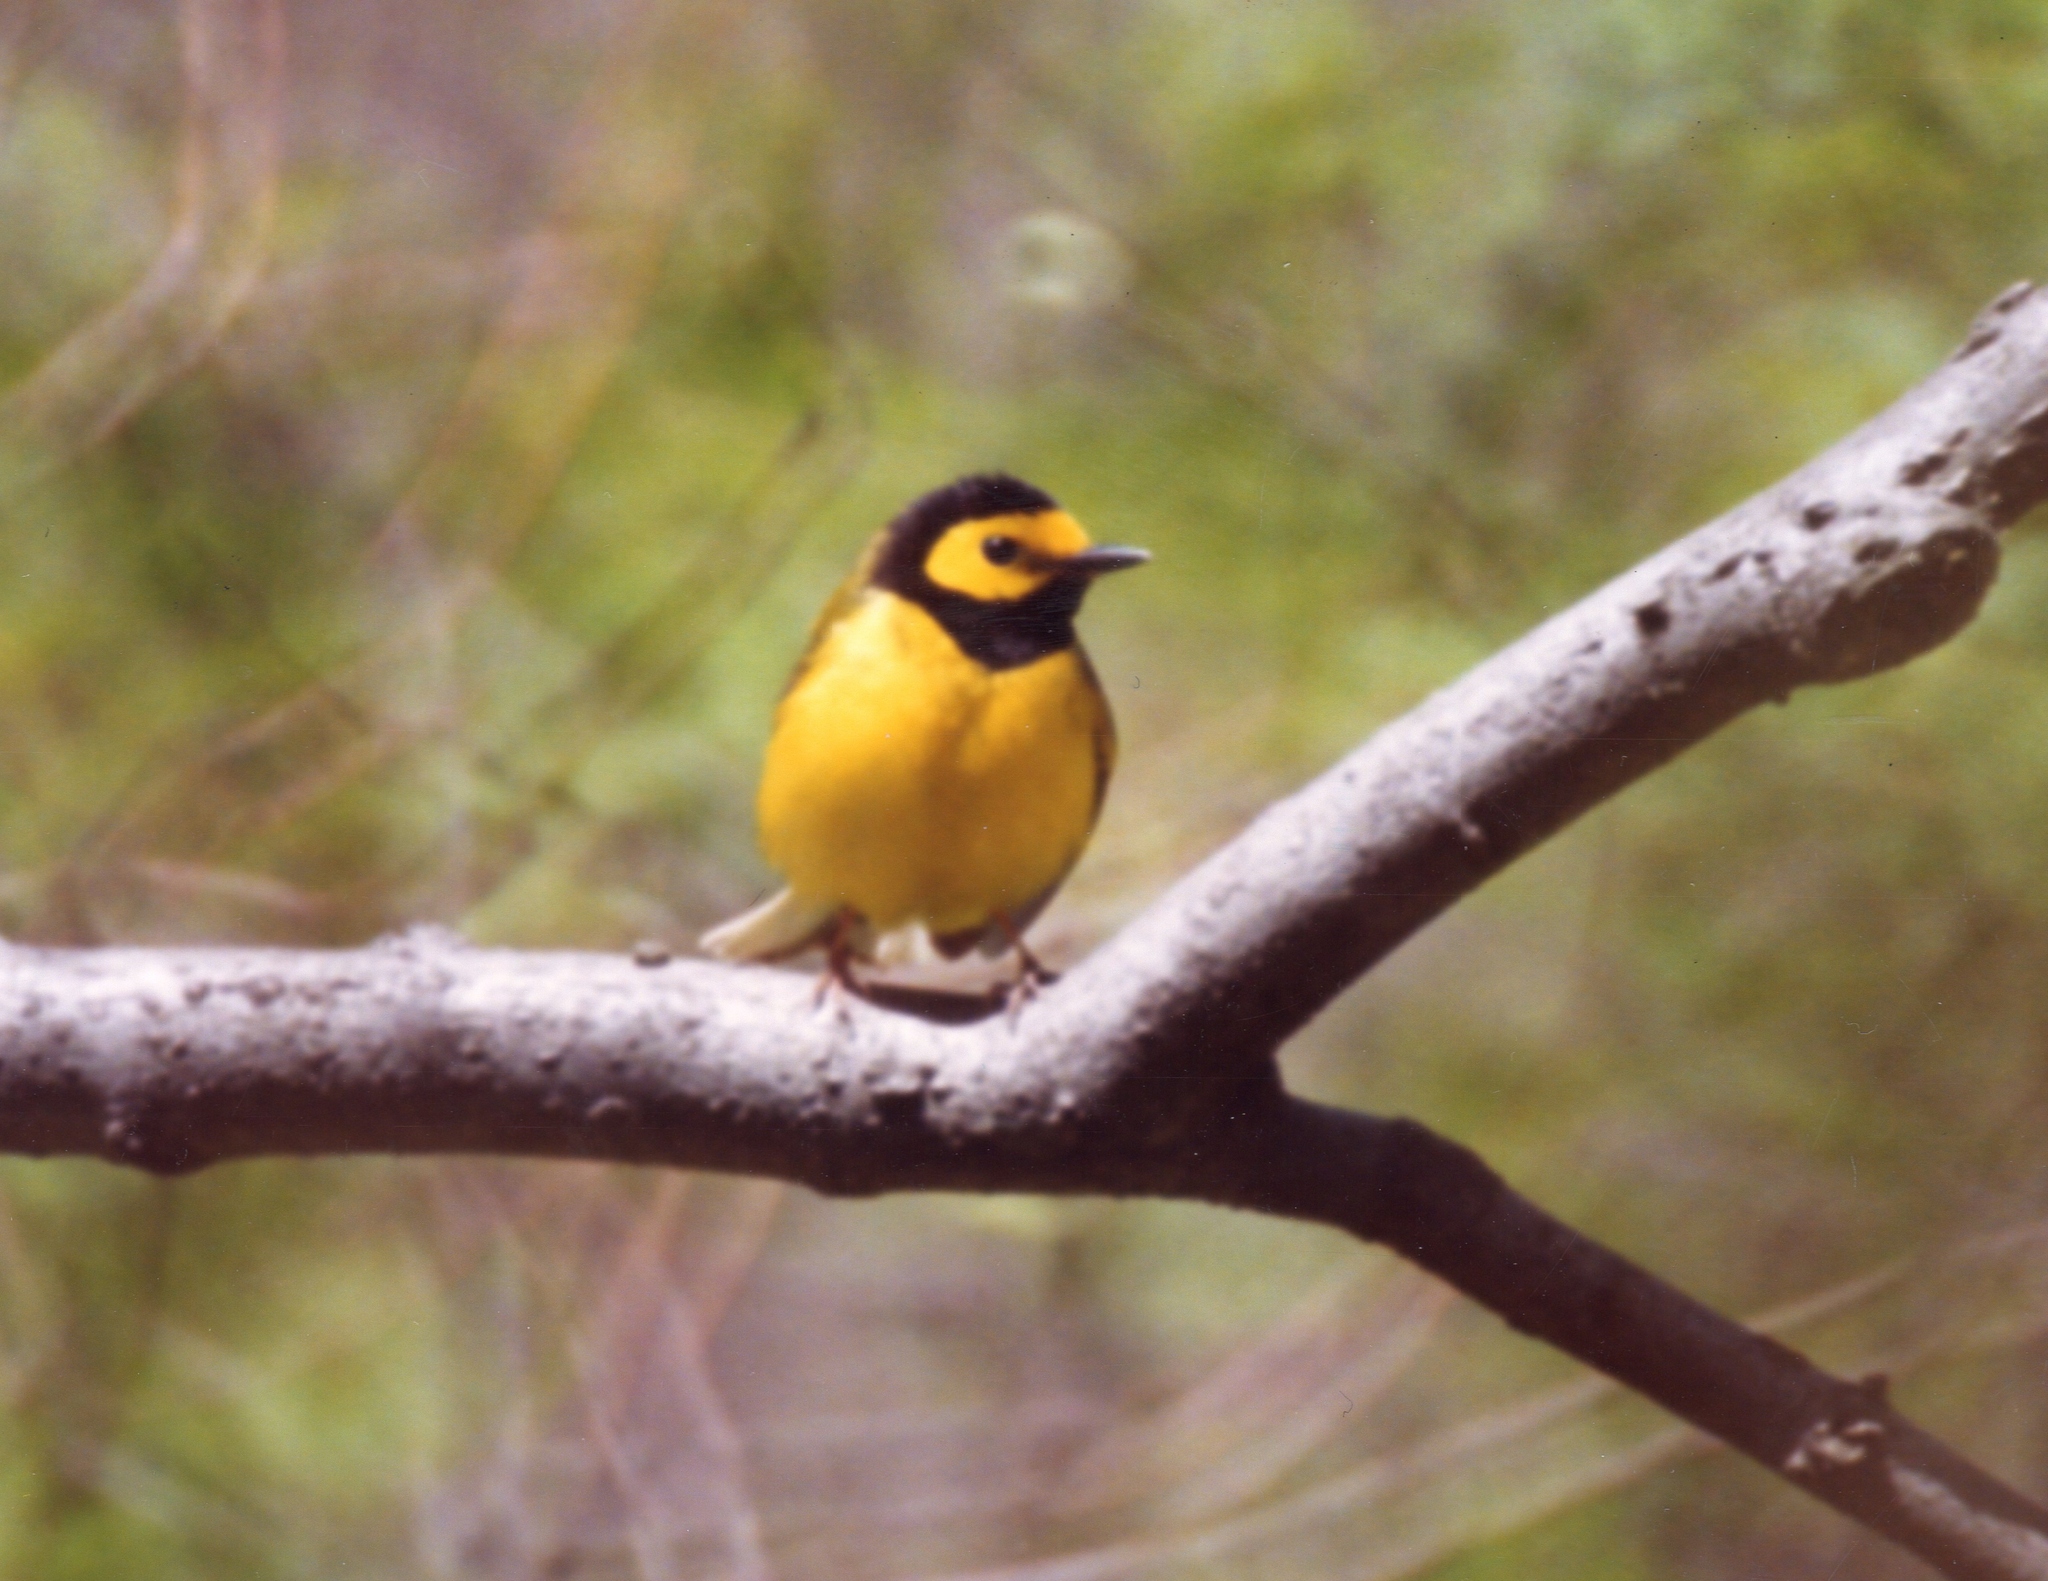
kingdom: Animalia
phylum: Chordata
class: Aves
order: Passeriformes
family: Parulidae
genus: Setophaga
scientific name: Setophaga citrina
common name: Hooded warbler
